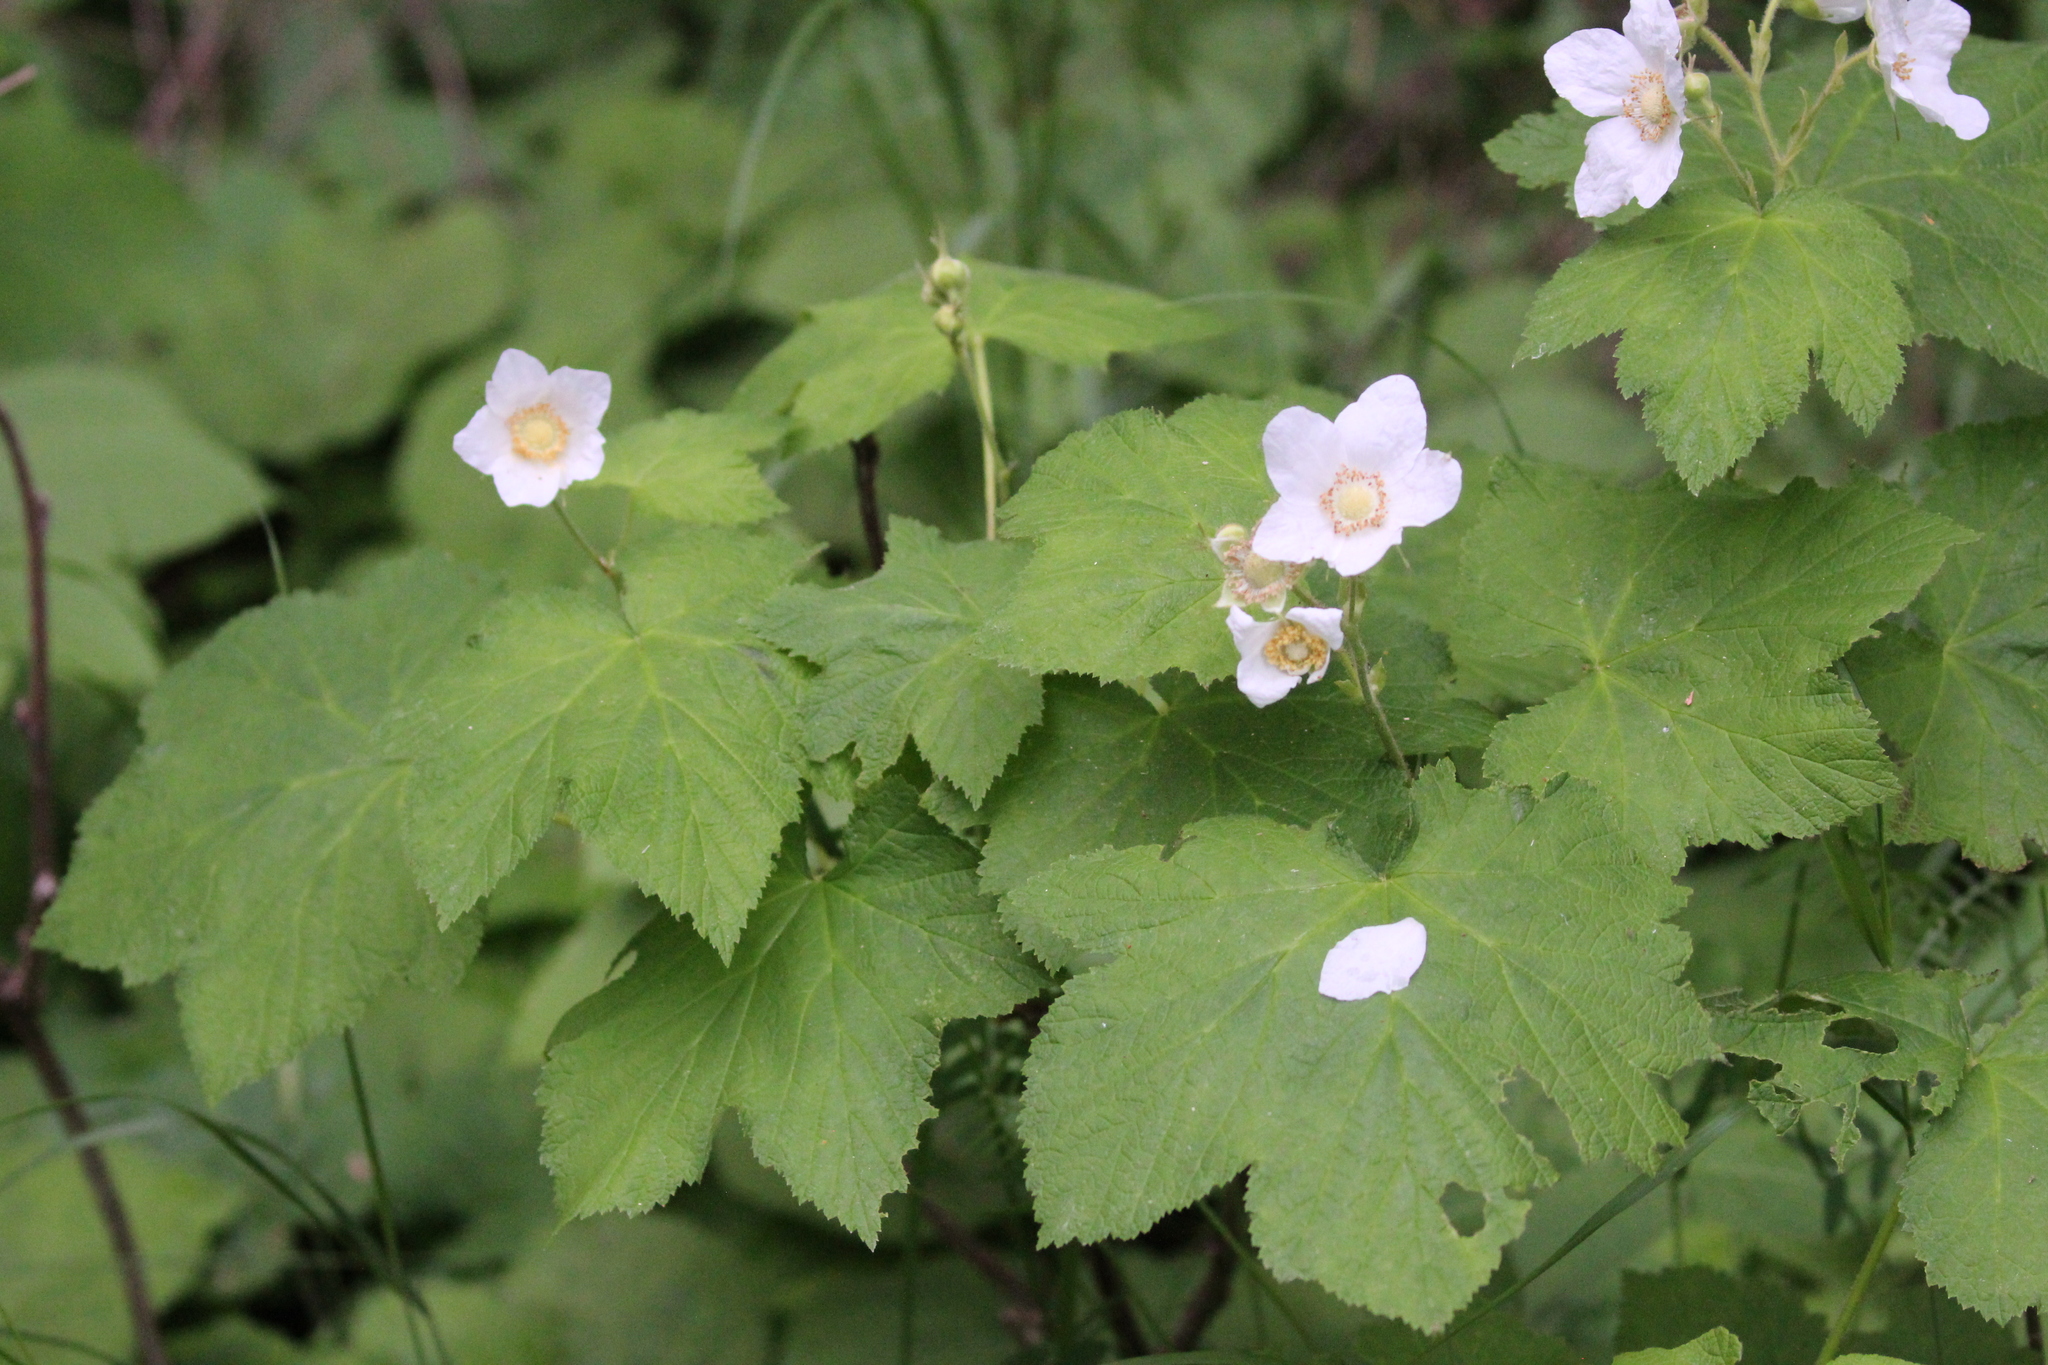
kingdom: Plantae
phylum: Tracheophyta
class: Magnoliopsida
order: Rosales
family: Rosaceae
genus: Rubus
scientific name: Rubus parviflorus
